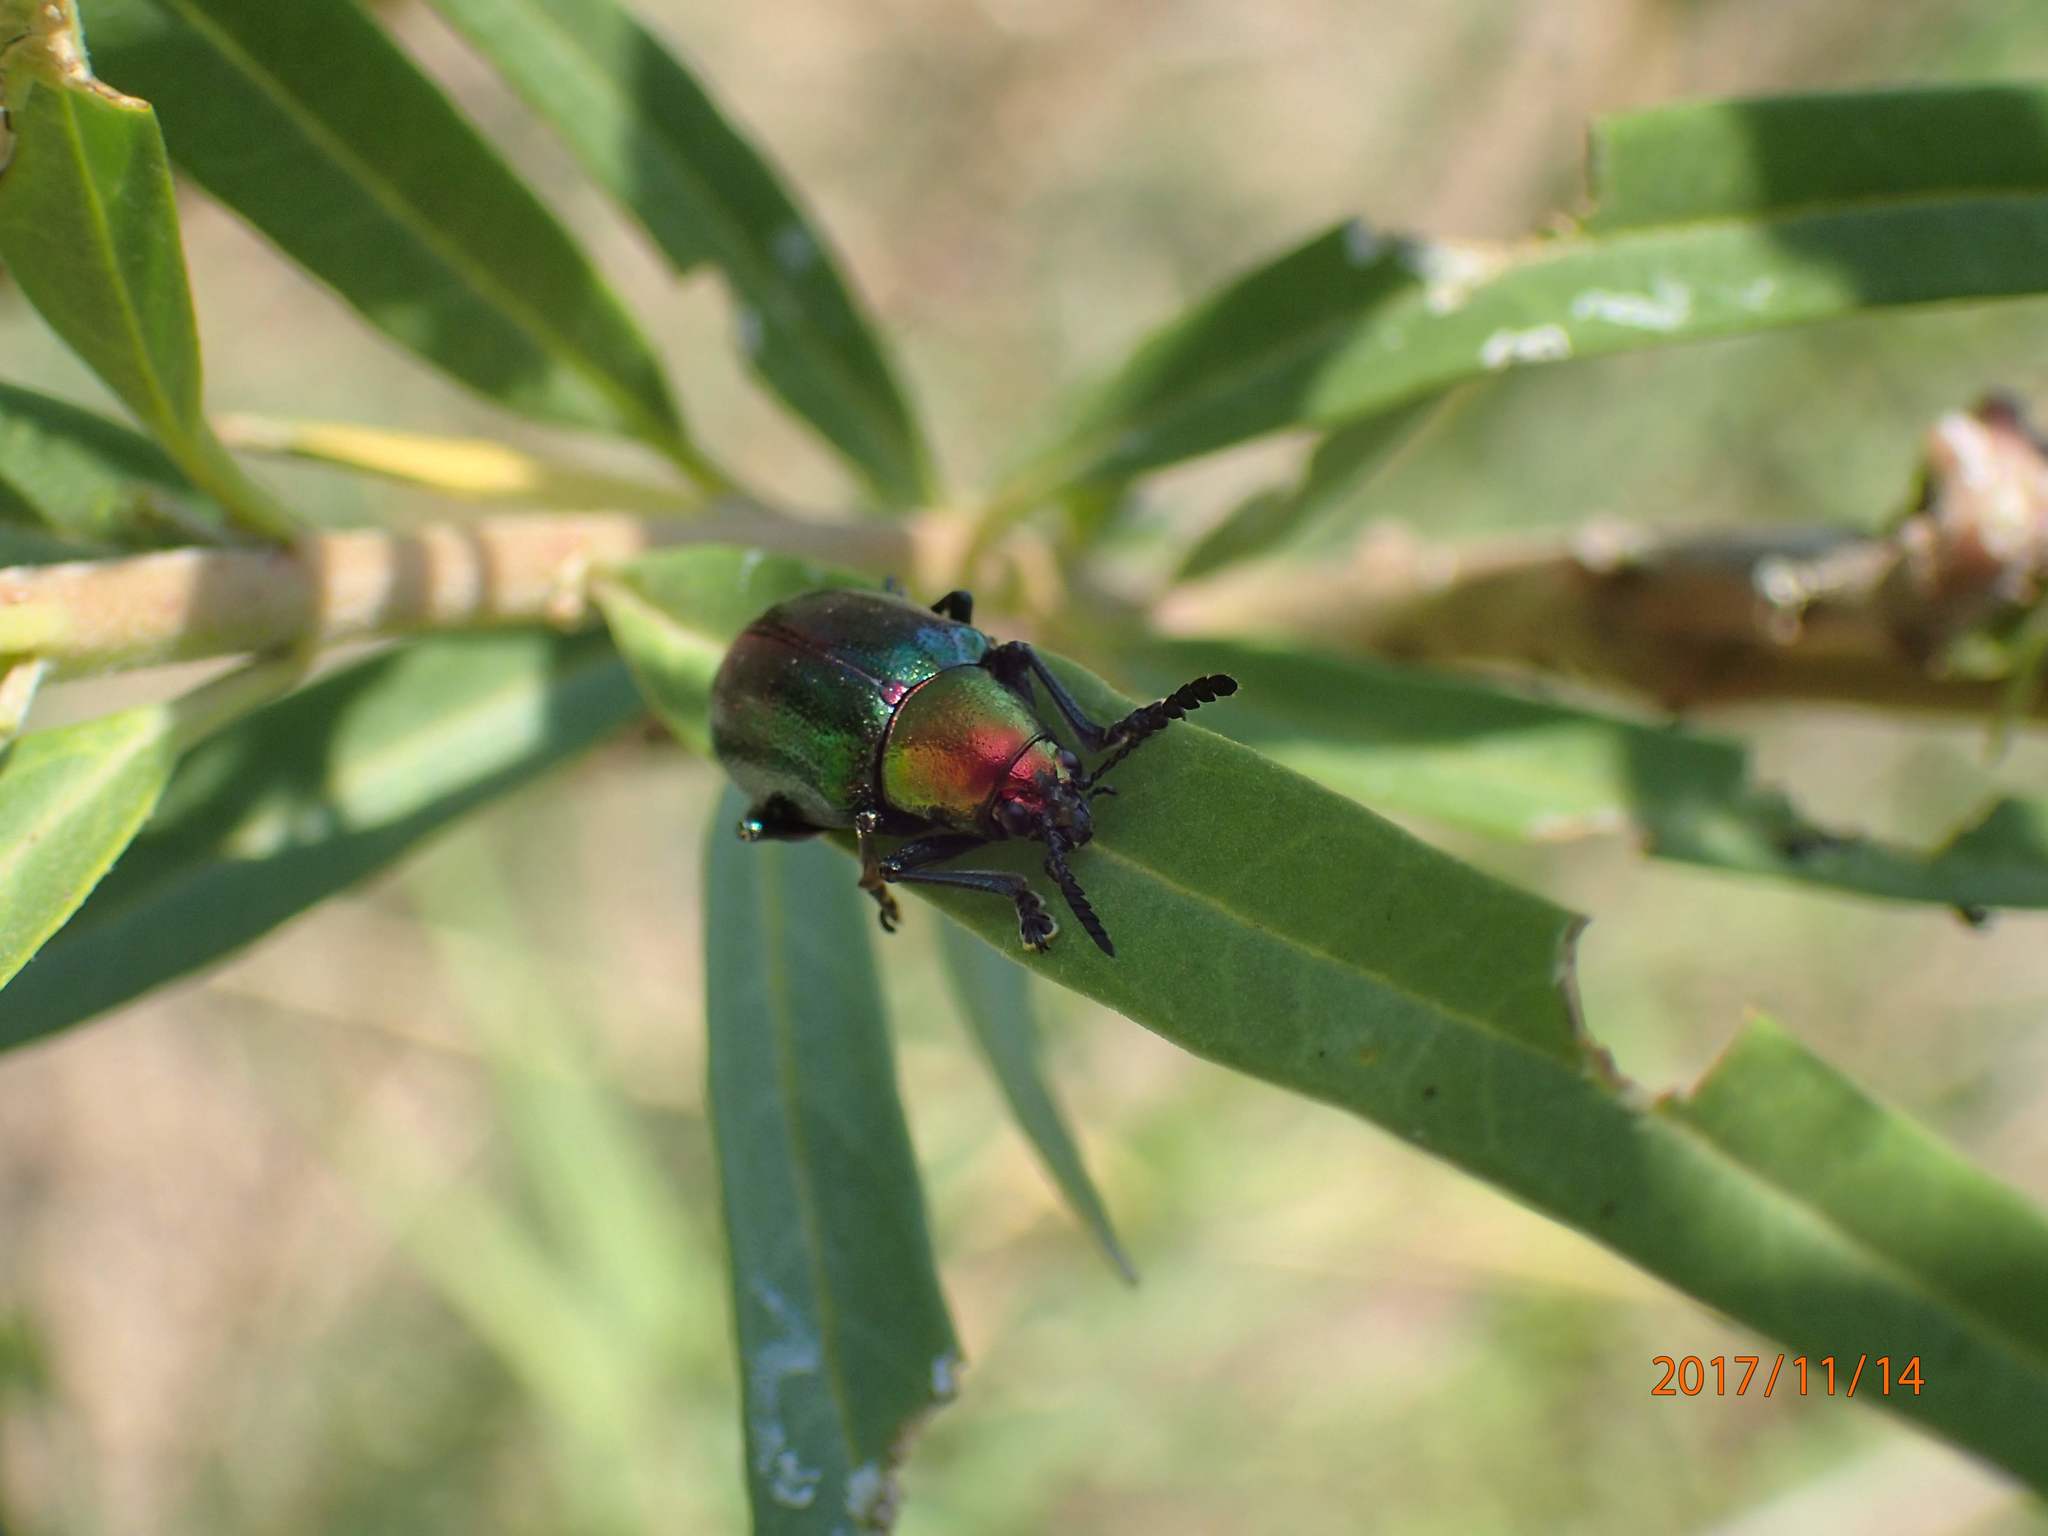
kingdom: Animalia
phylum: Arthropoda
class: Insecta
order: Coleoptera
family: Chrysomelidae
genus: Platycorynus
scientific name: Platycorynus dejeani
